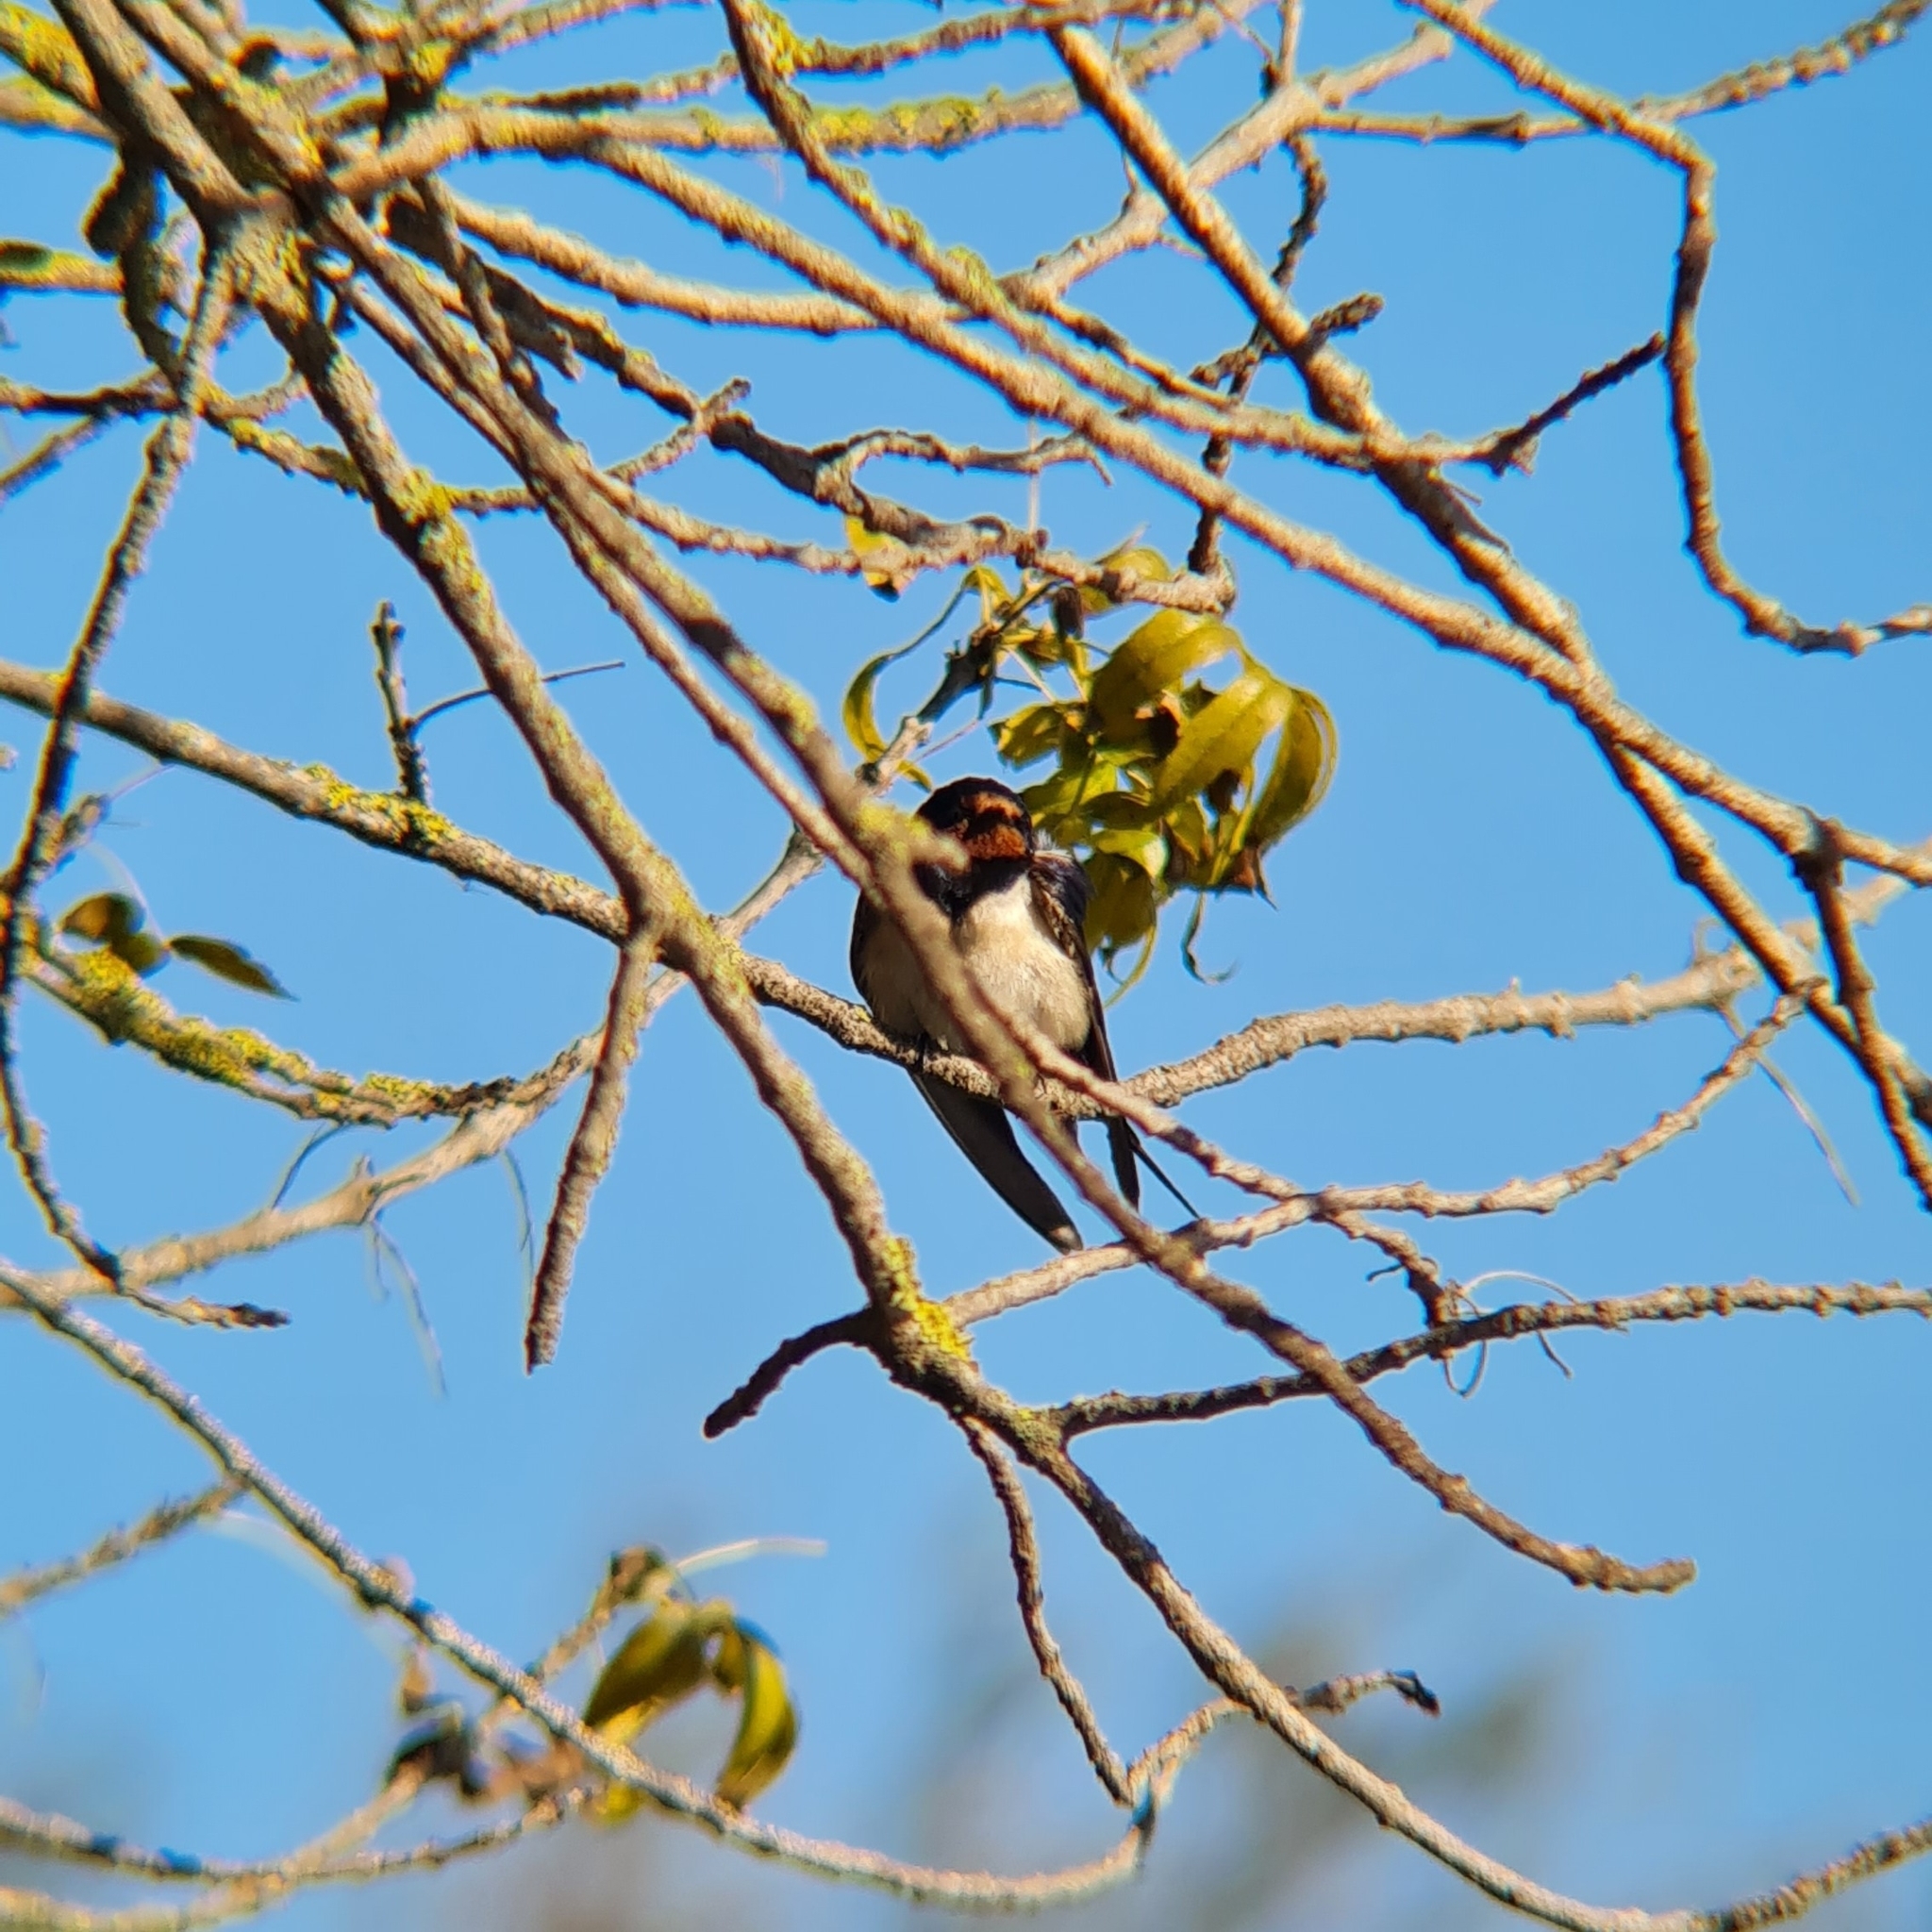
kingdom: Animalia
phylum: Chordata
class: Aves
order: Passeriformes
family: Hirundinidae
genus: Hirundo
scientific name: Hirundo rustica
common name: Barn swallow
